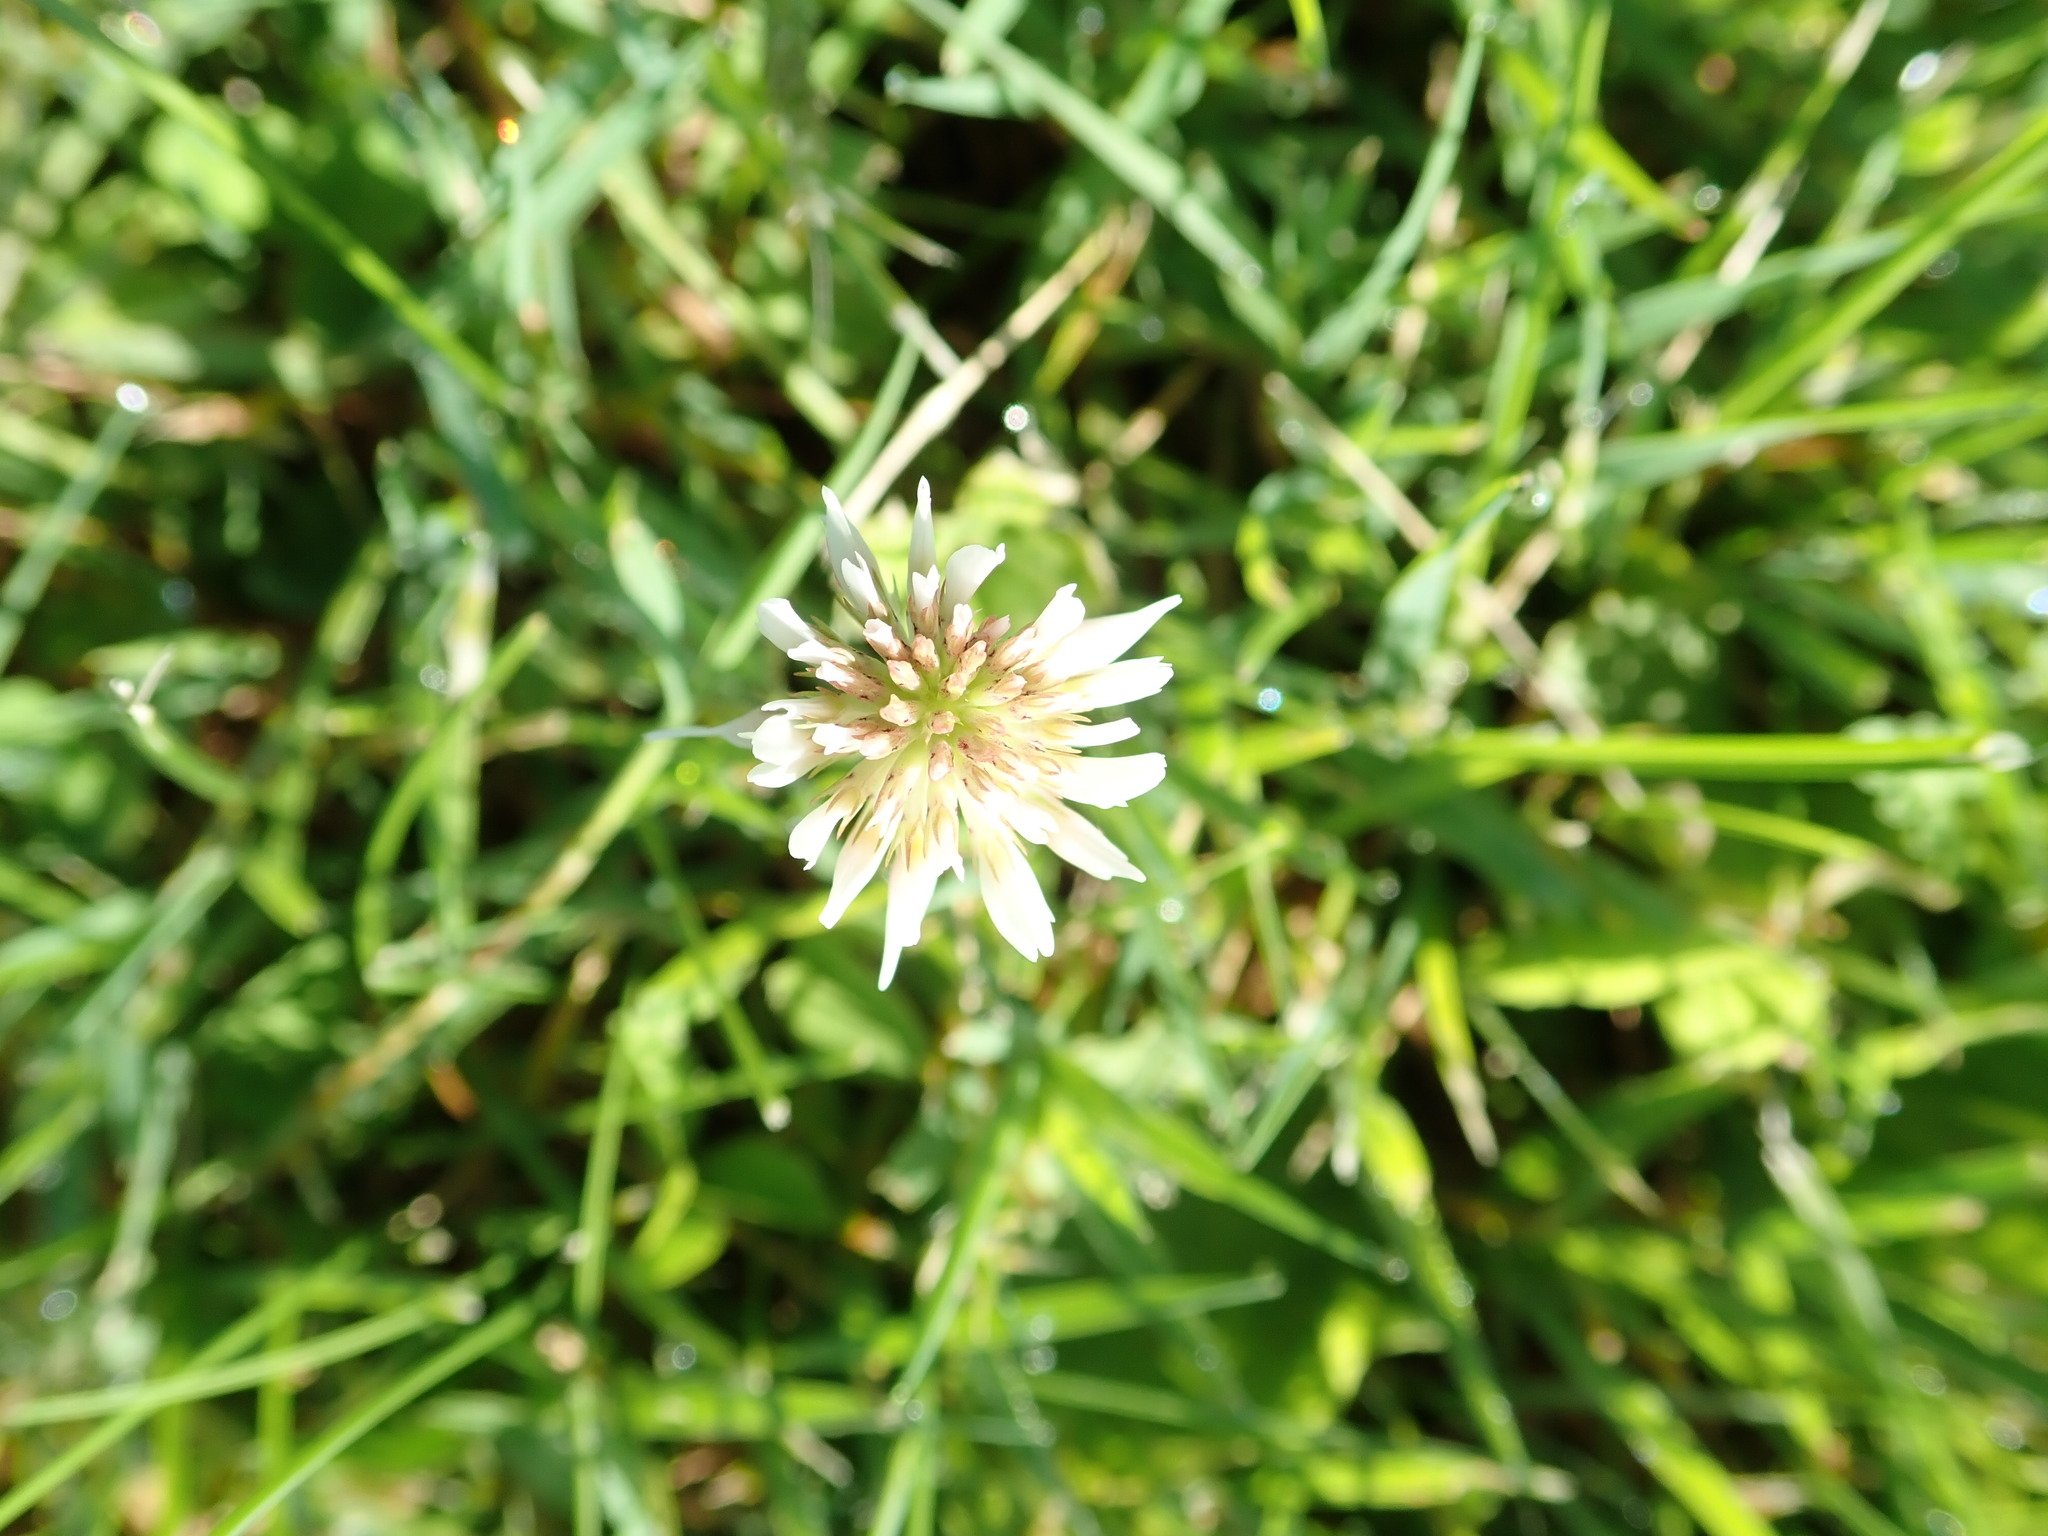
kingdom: Plantae
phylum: Tracheophyta
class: Magnoliopsida
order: Fabales
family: Fabaceae
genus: Trifolium
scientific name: Trifolium repens
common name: White clover
